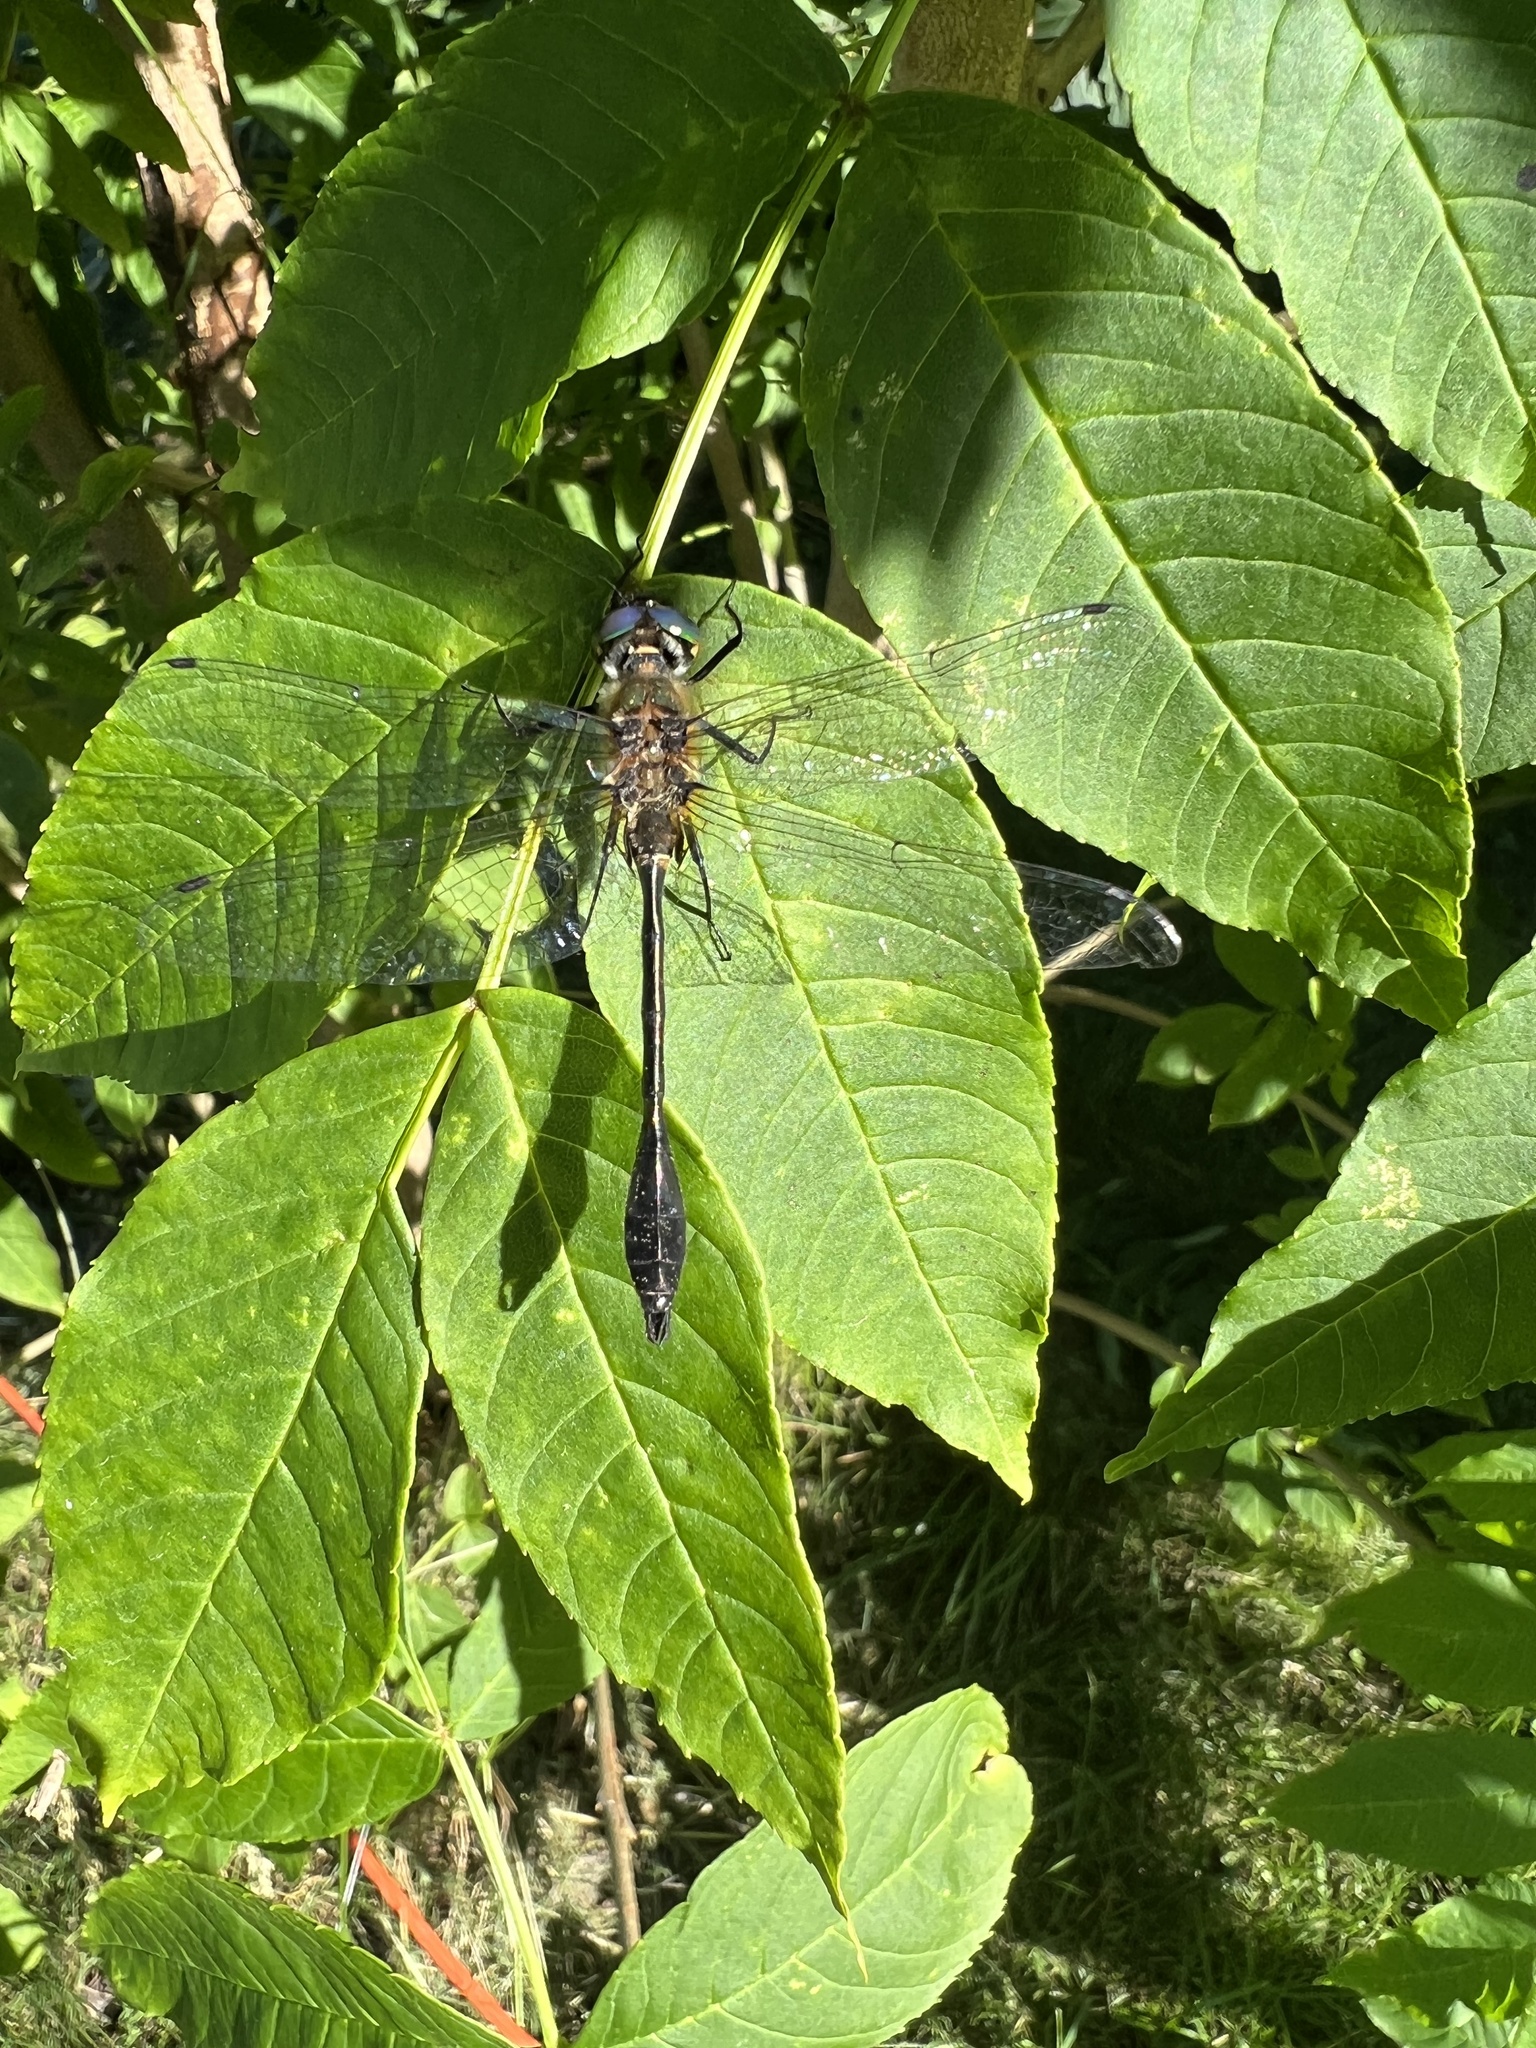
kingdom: Animalia
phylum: Arthropoda
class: Insecta
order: Odonata
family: Corduliidae
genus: Dorocordulia
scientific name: Dorocordulia libera
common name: Racket-tailed emerald
